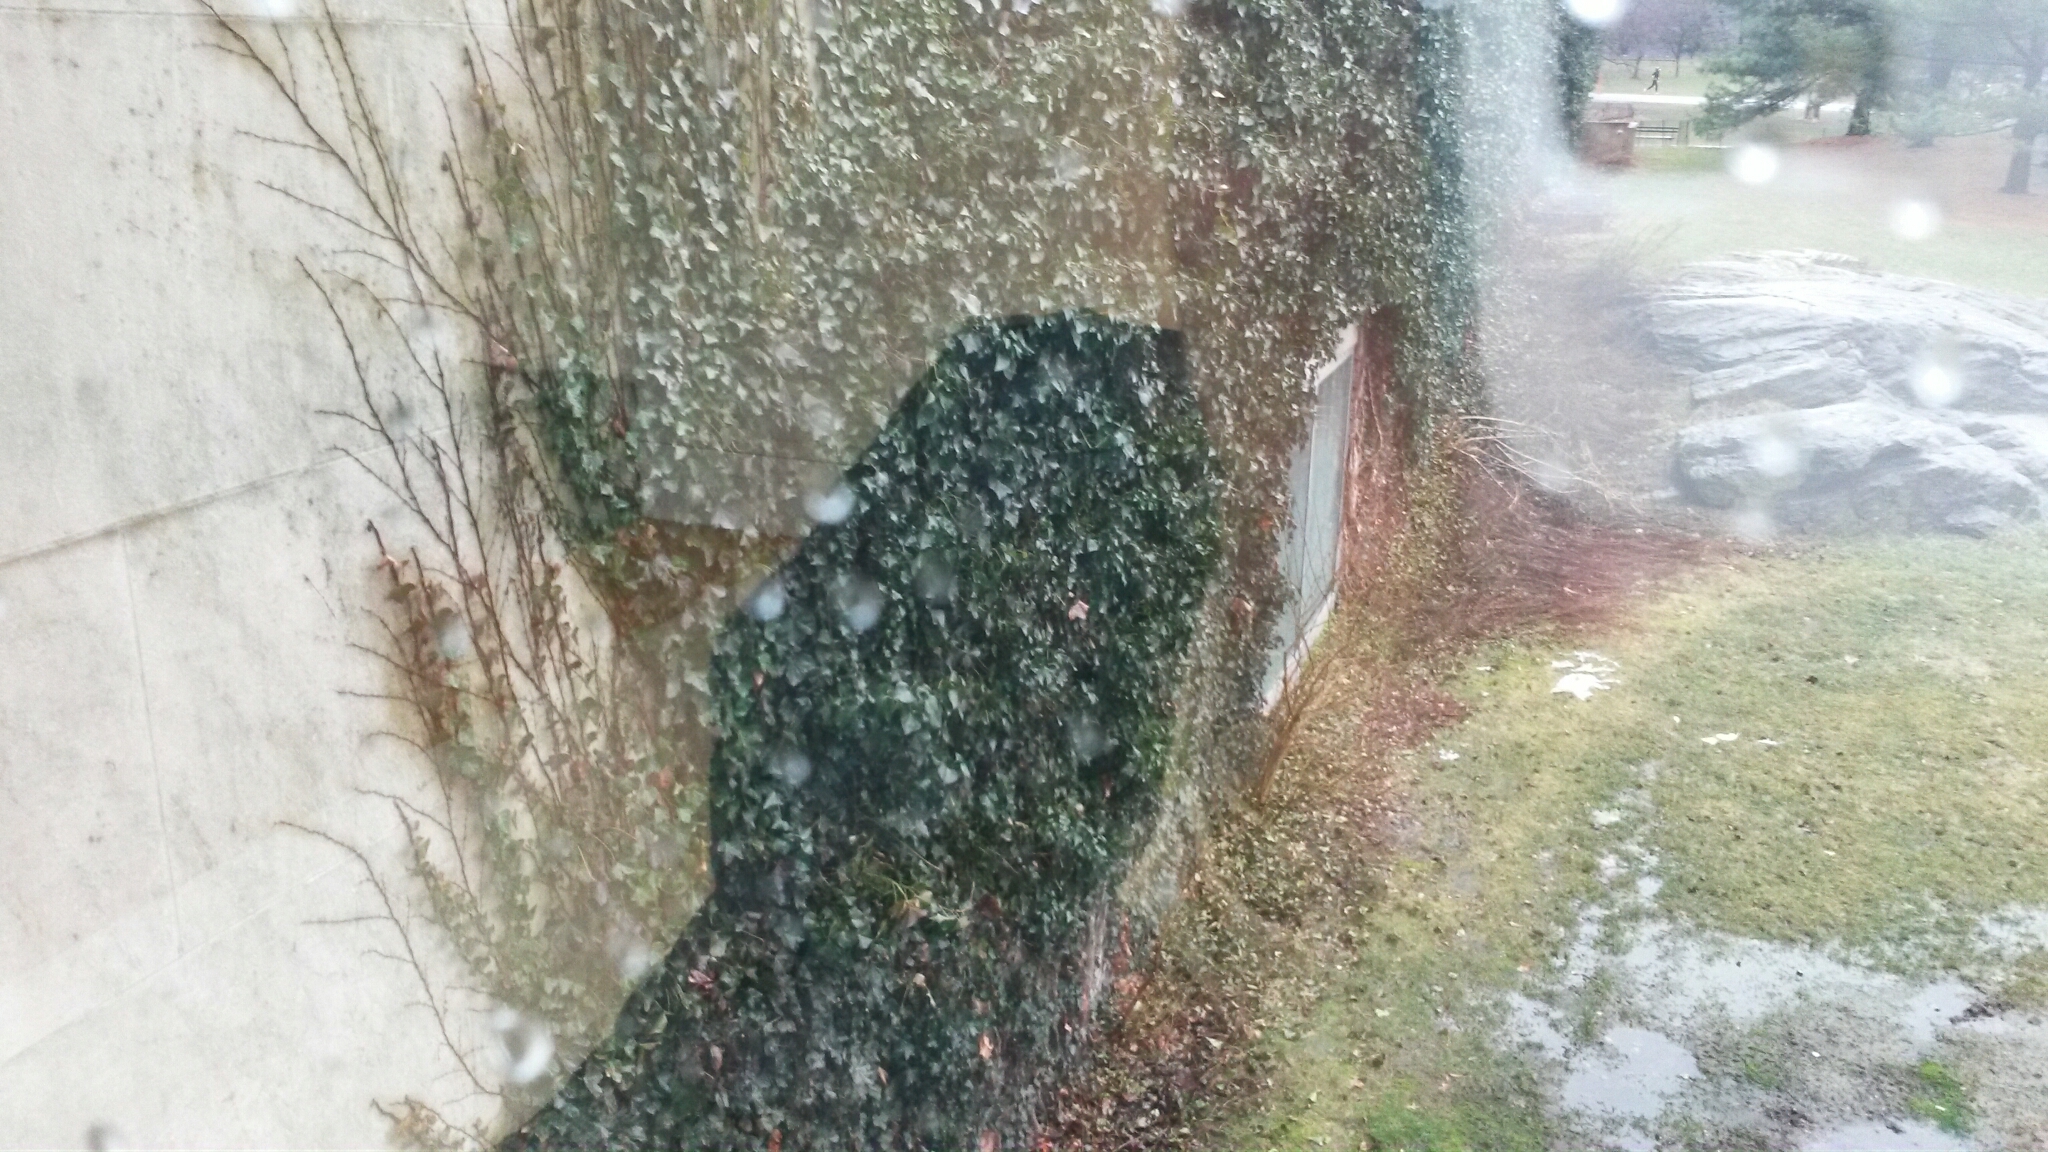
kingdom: Plantae
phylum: Tracheophyta
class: Magnoliopsida
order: Apiales
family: Araliaceae
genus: Hedera
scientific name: Hedera helix
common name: Ivy
